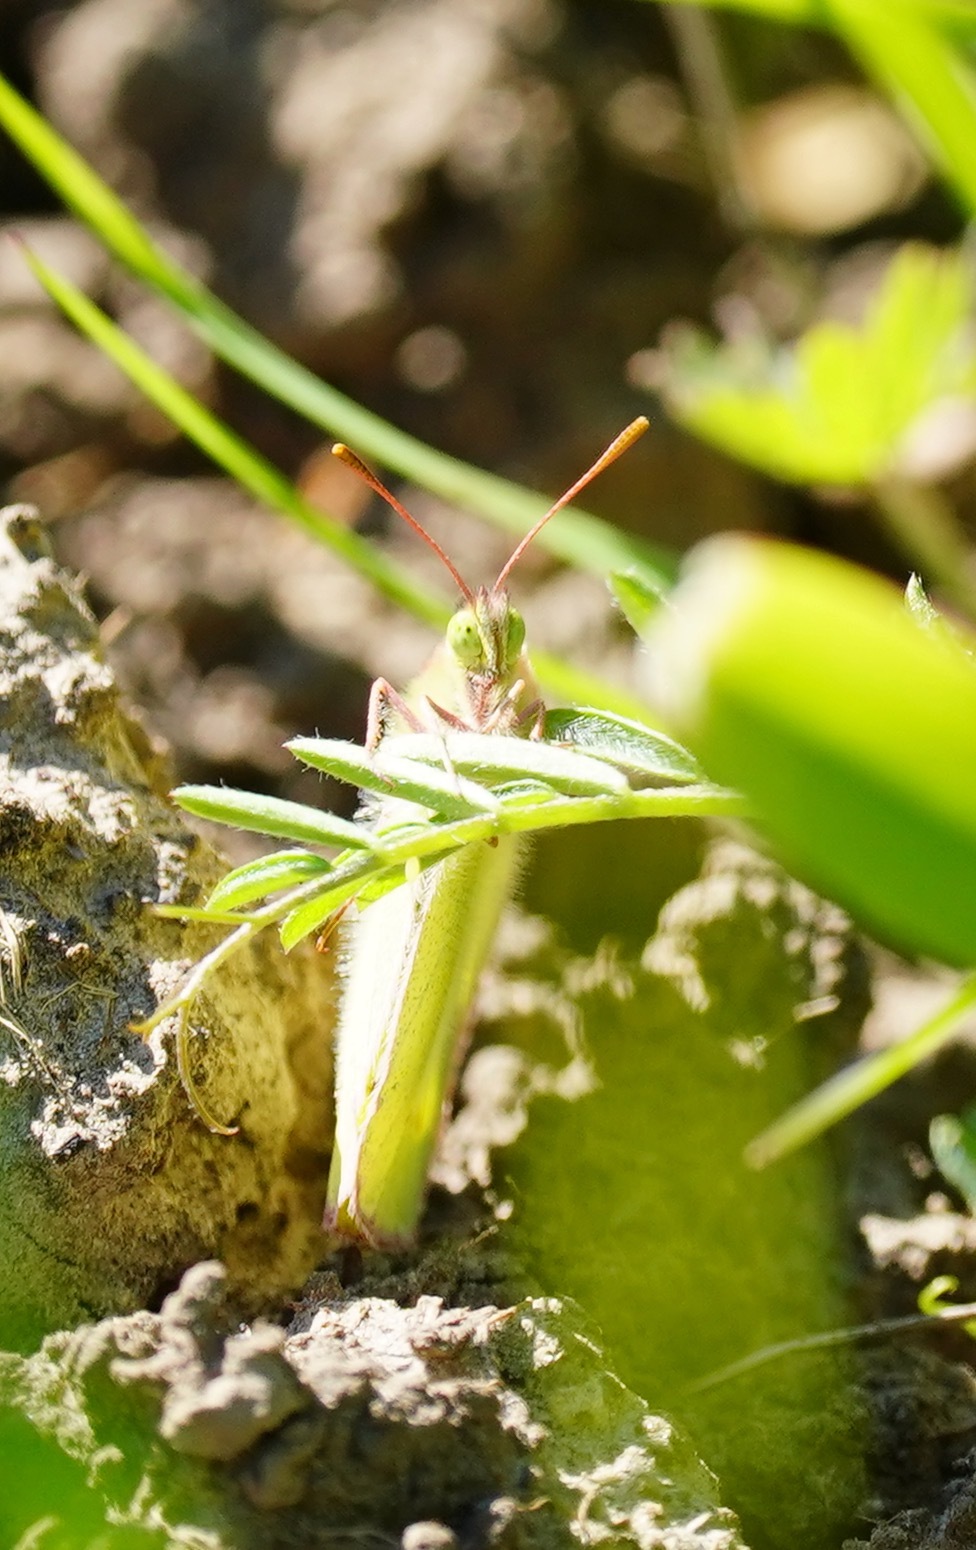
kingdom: Animalia
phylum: Arthropoda
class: Insecta
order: Lepidoptera
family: Pieridae
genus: Pieris
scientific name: Pieris rapae
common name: Small white
